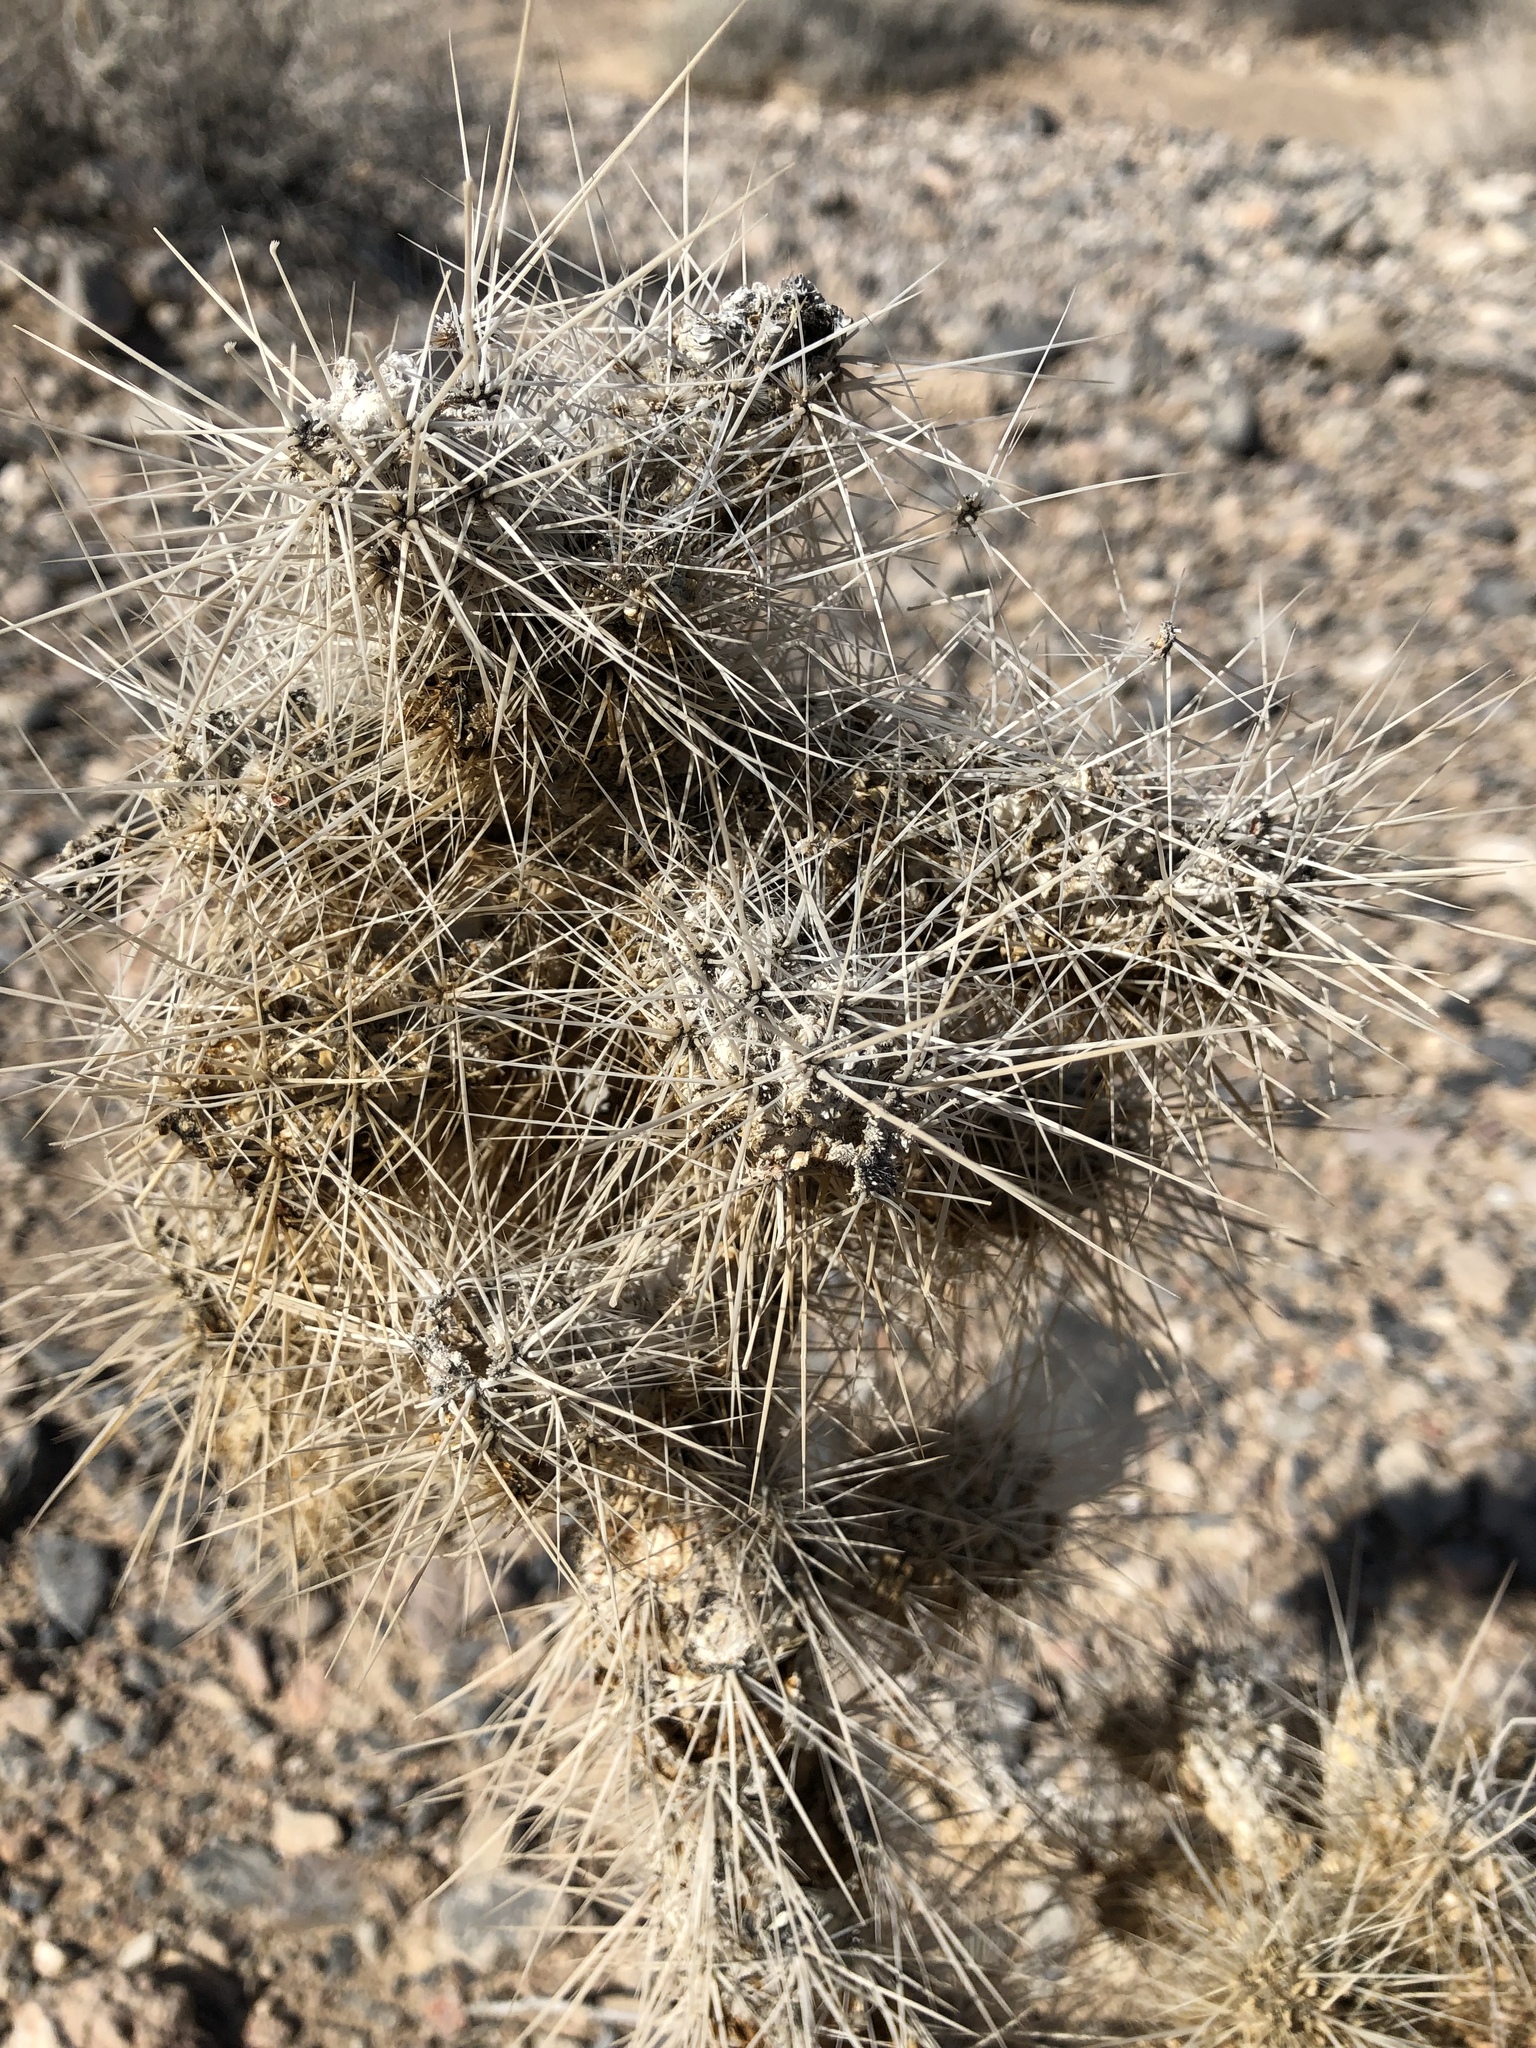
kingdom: Plantae
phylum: Tracheophyta
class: Magnoliopsida
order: Caryophyllales
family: Cactaceae
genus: Cylindropuntia
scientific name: Cylindropuntia echinocarpa
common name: Ground cholla
